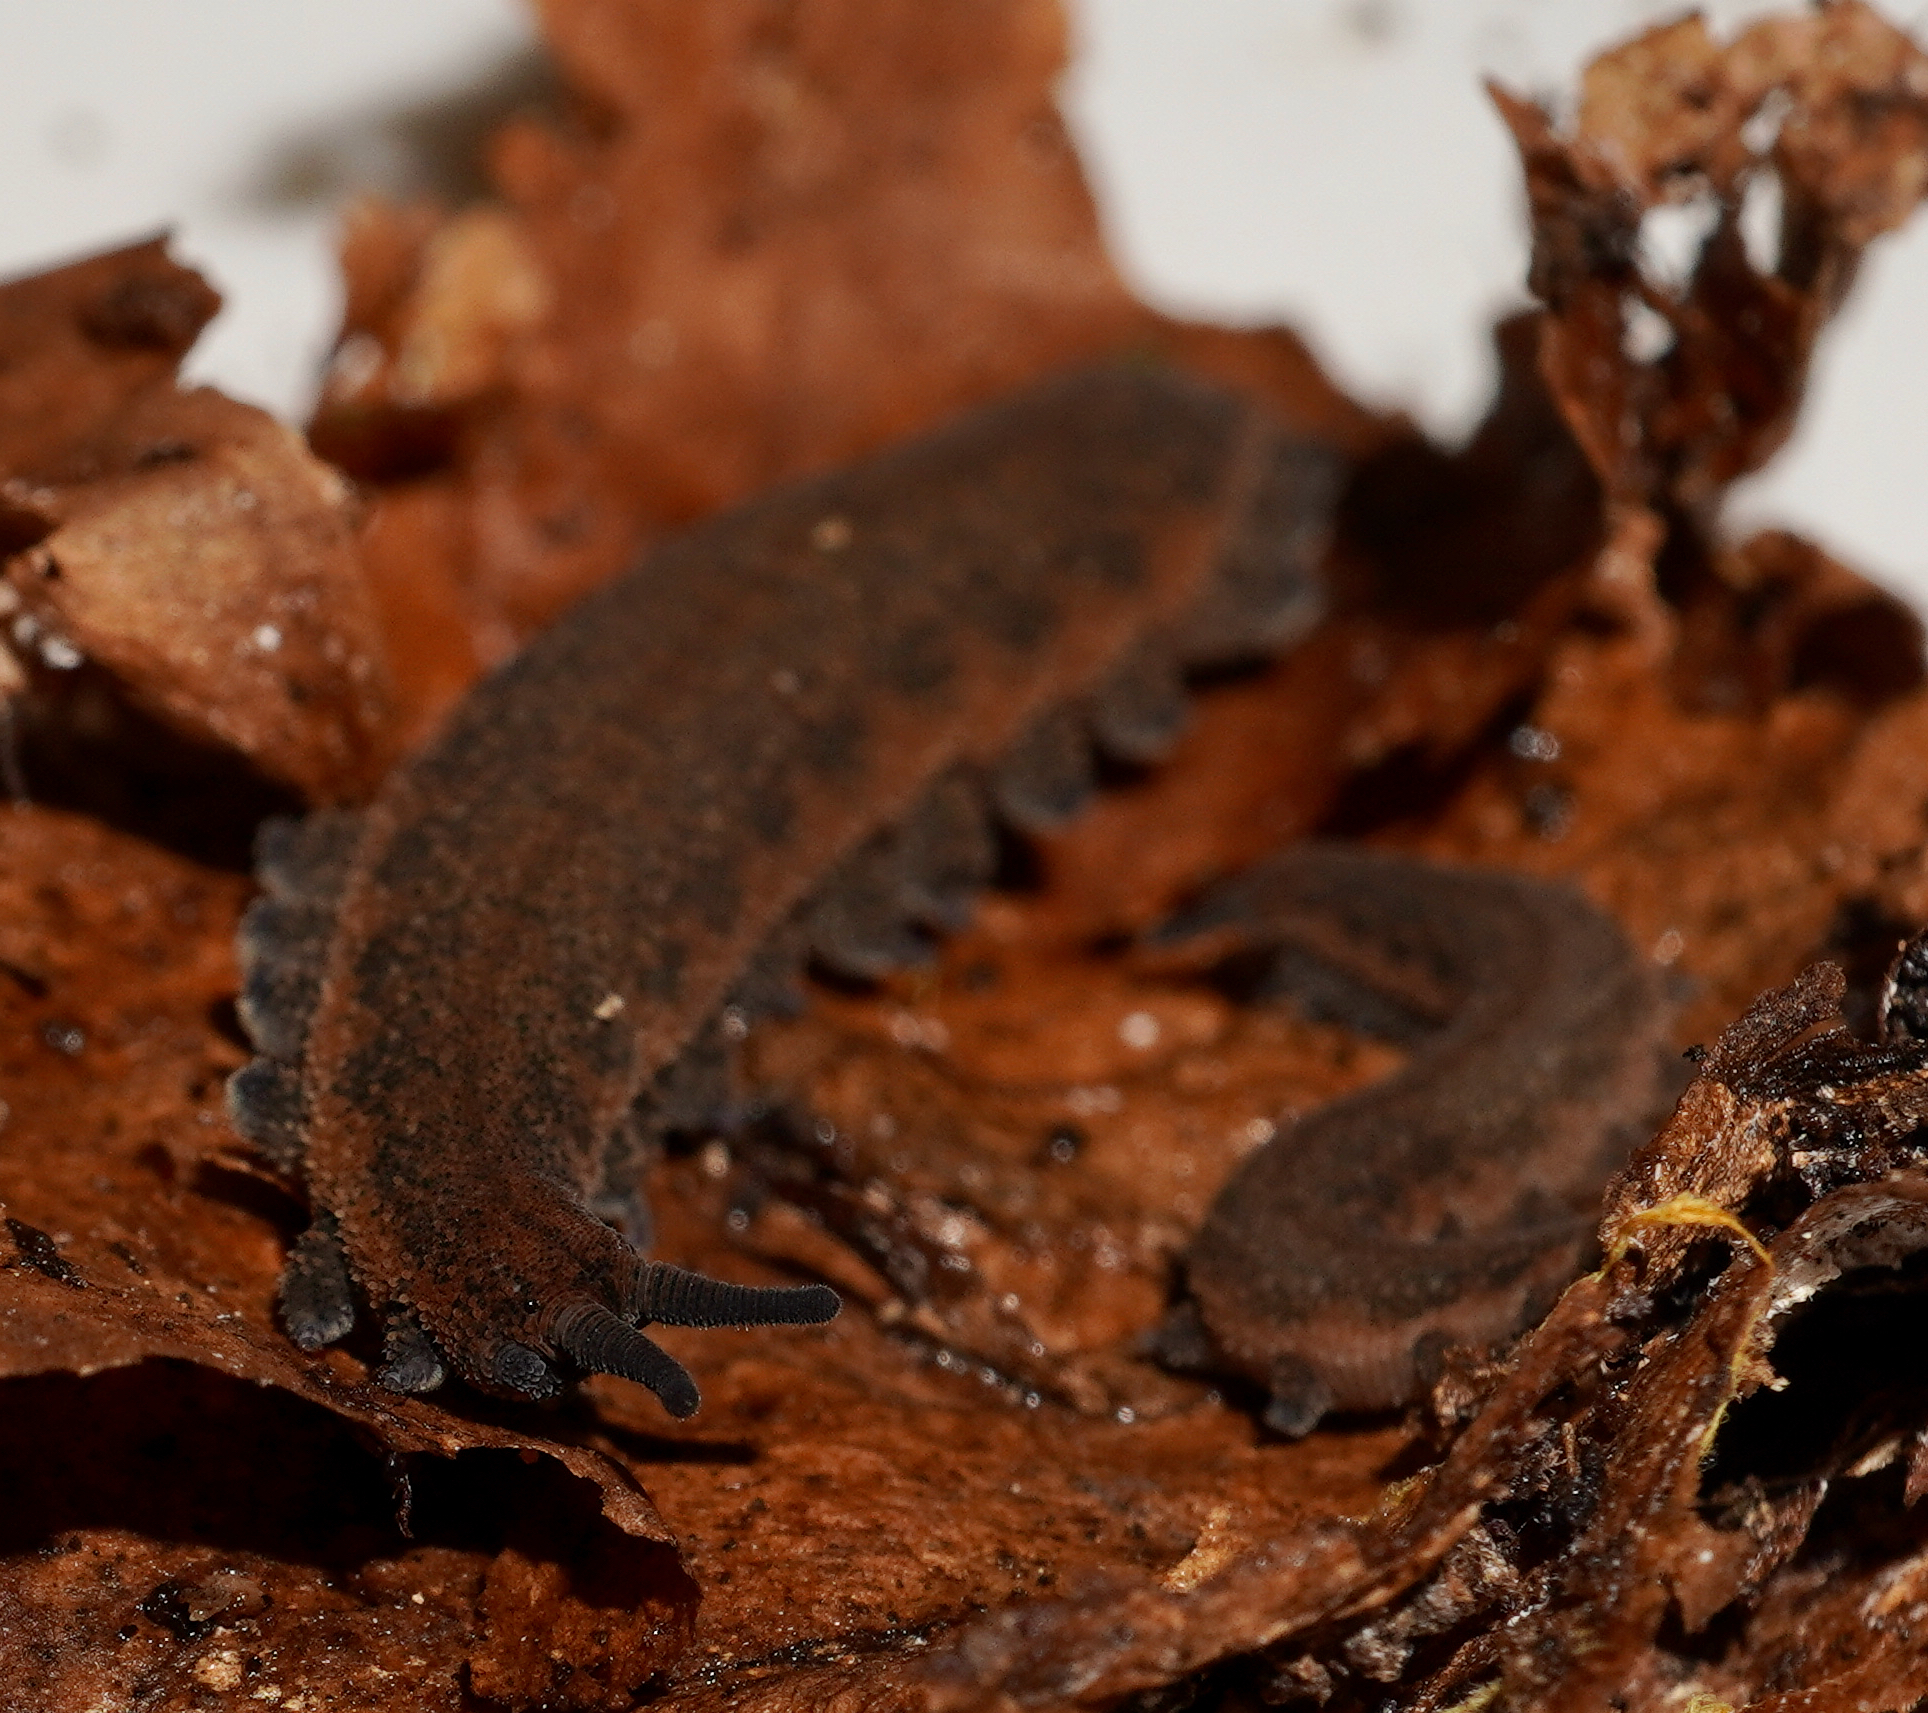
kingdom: Animalia
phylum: Onychophora
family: Peripatopsidae
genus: Peripatoides
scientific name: Peripatoides
